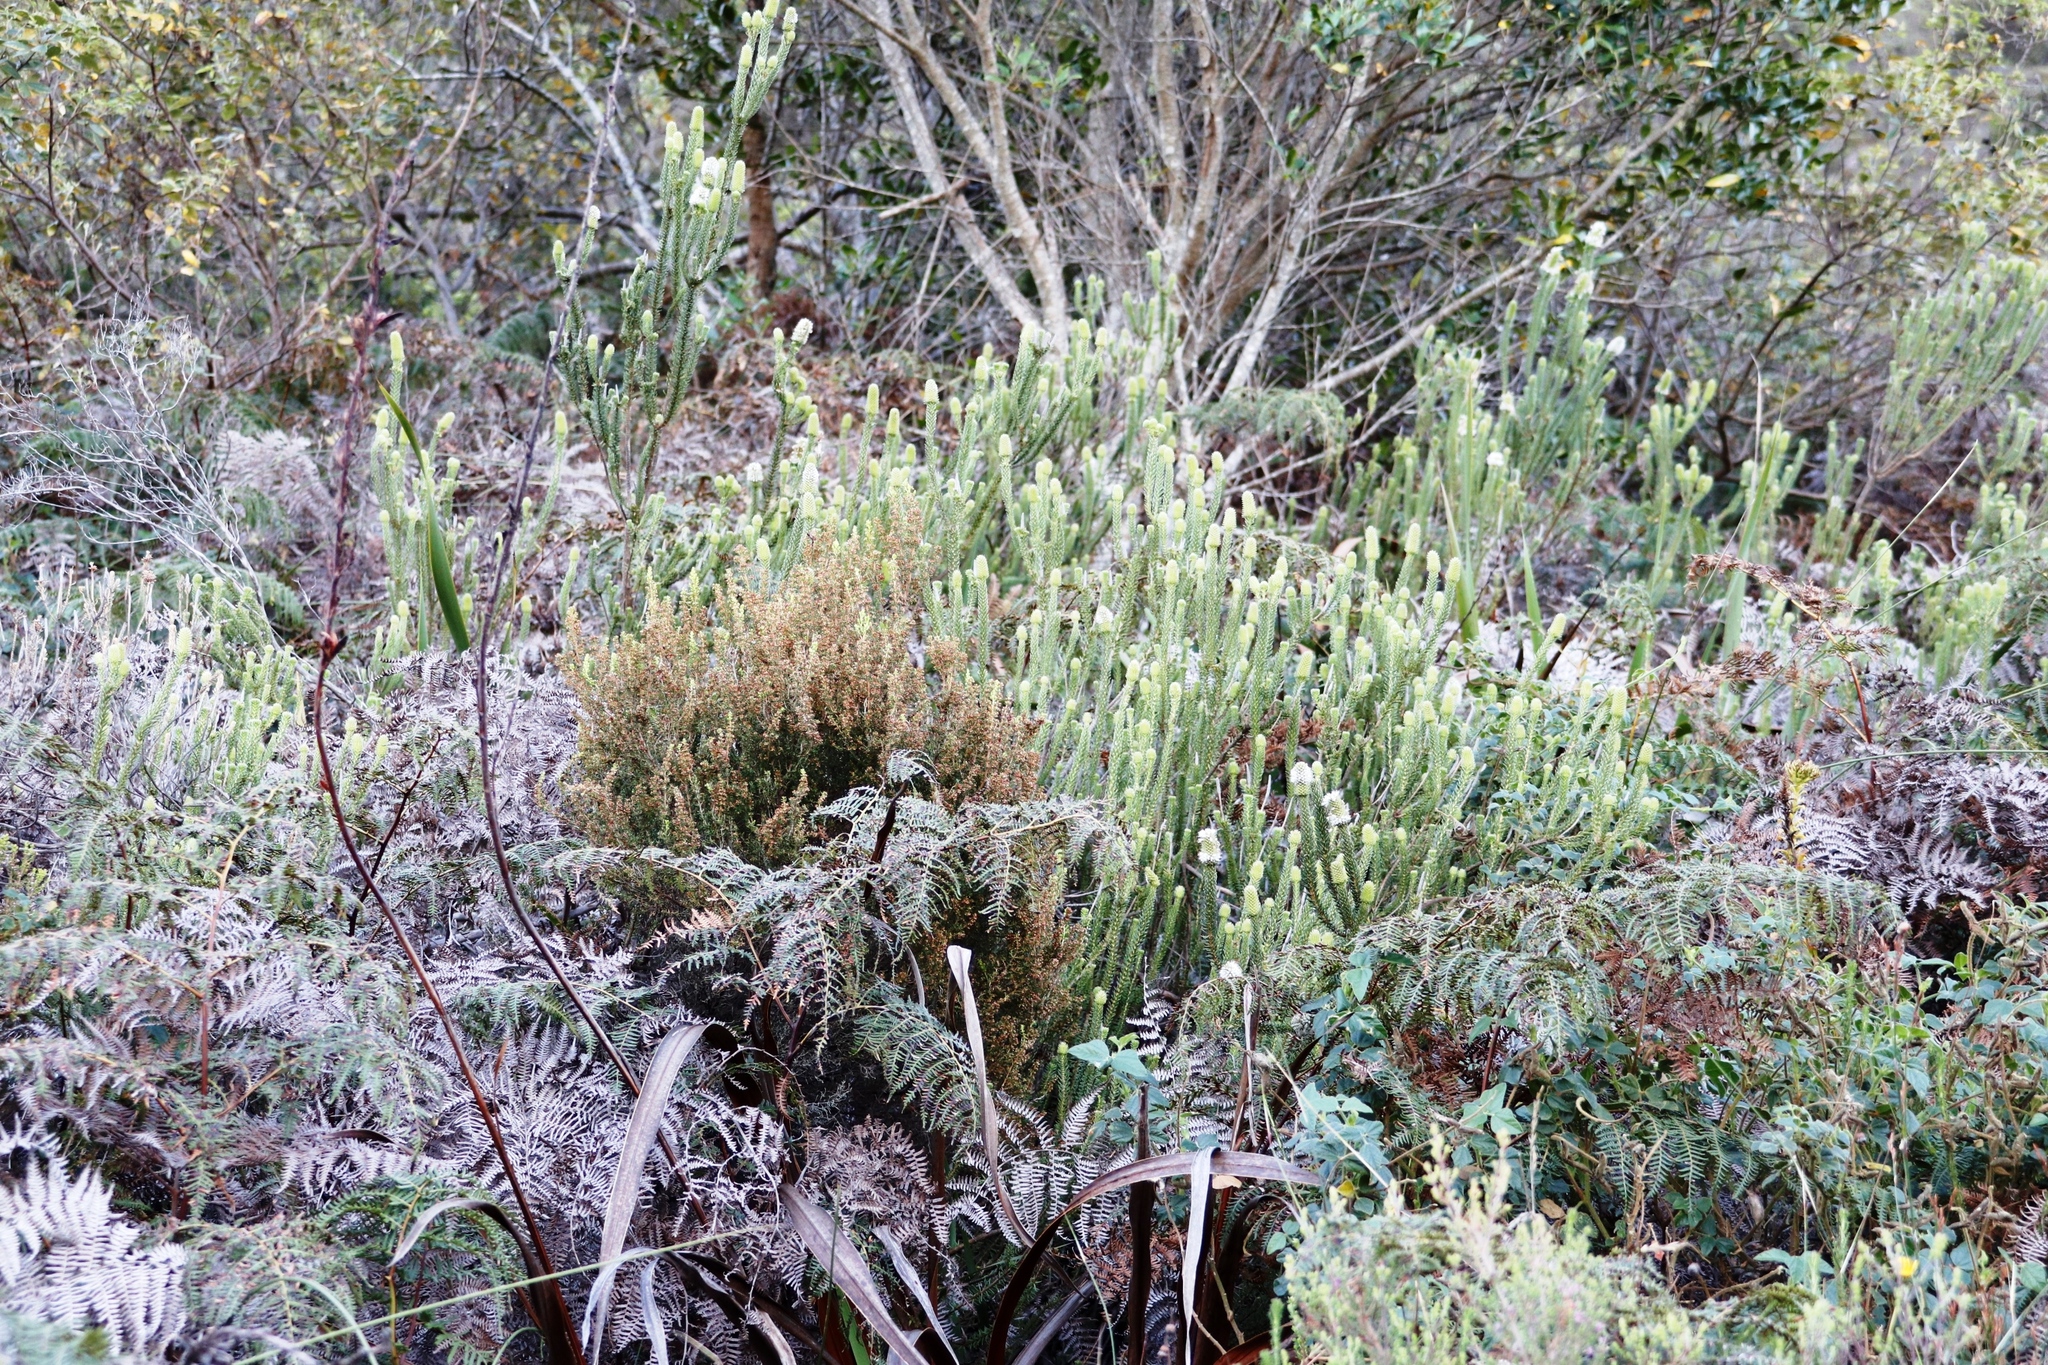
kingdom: Plantae
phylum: Tracheophyta
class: Magnoliopsida
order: Lamiales
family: Stilbaceae
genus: Stilbe
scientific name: Stilbe vestita
